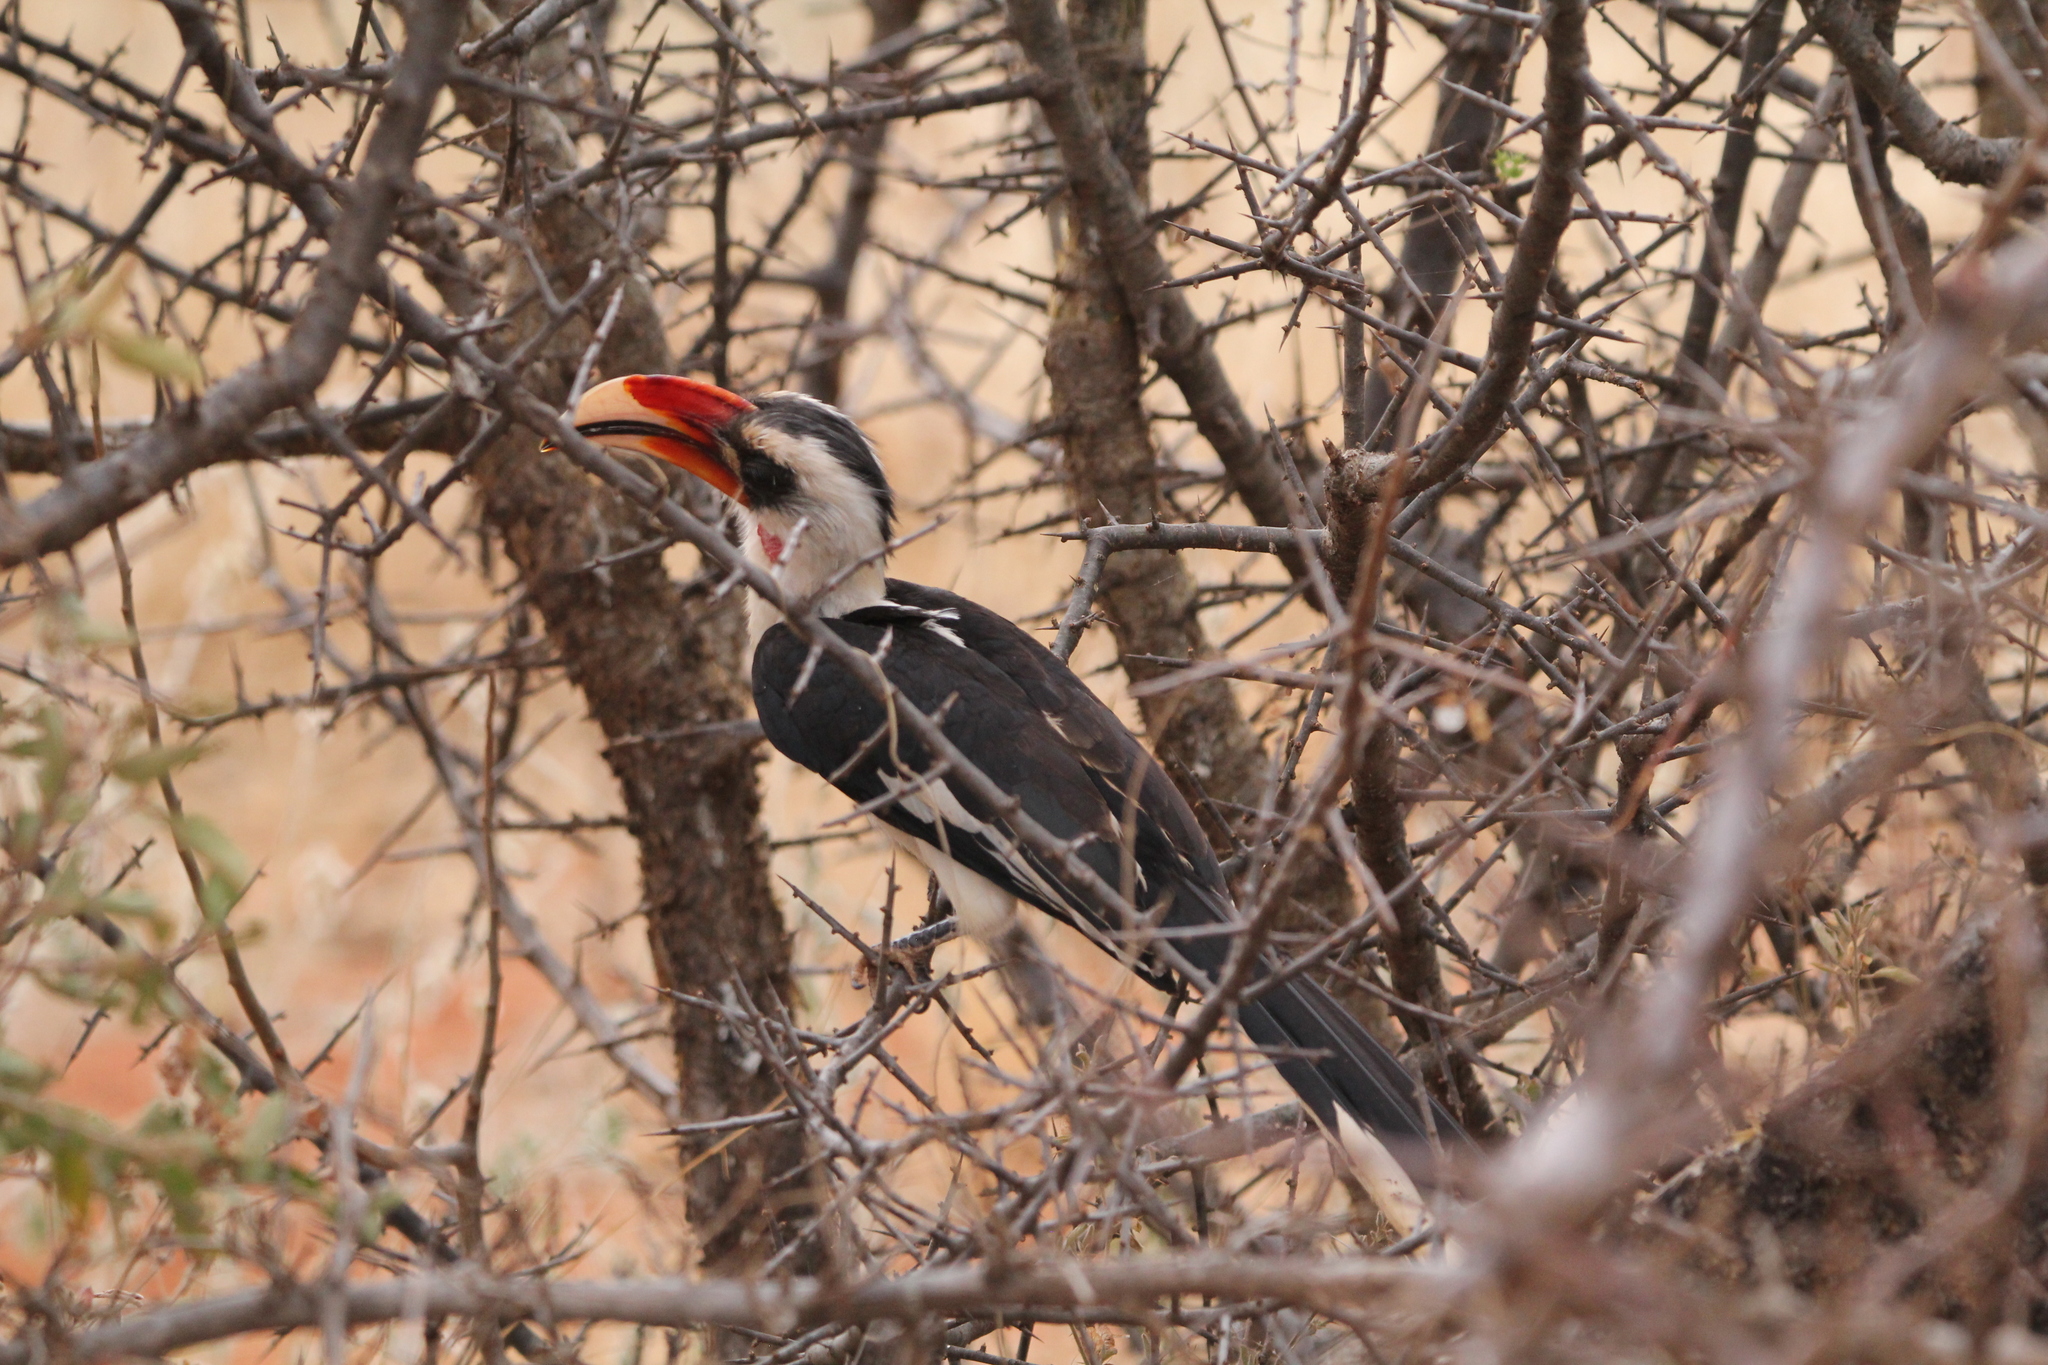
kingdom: Animalia
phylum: Chordata
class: Aves
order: Bucerotiformes
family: Bucerotidae
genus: Tockus
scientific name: Tockus deckeni
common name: Von der decken's hornbill
